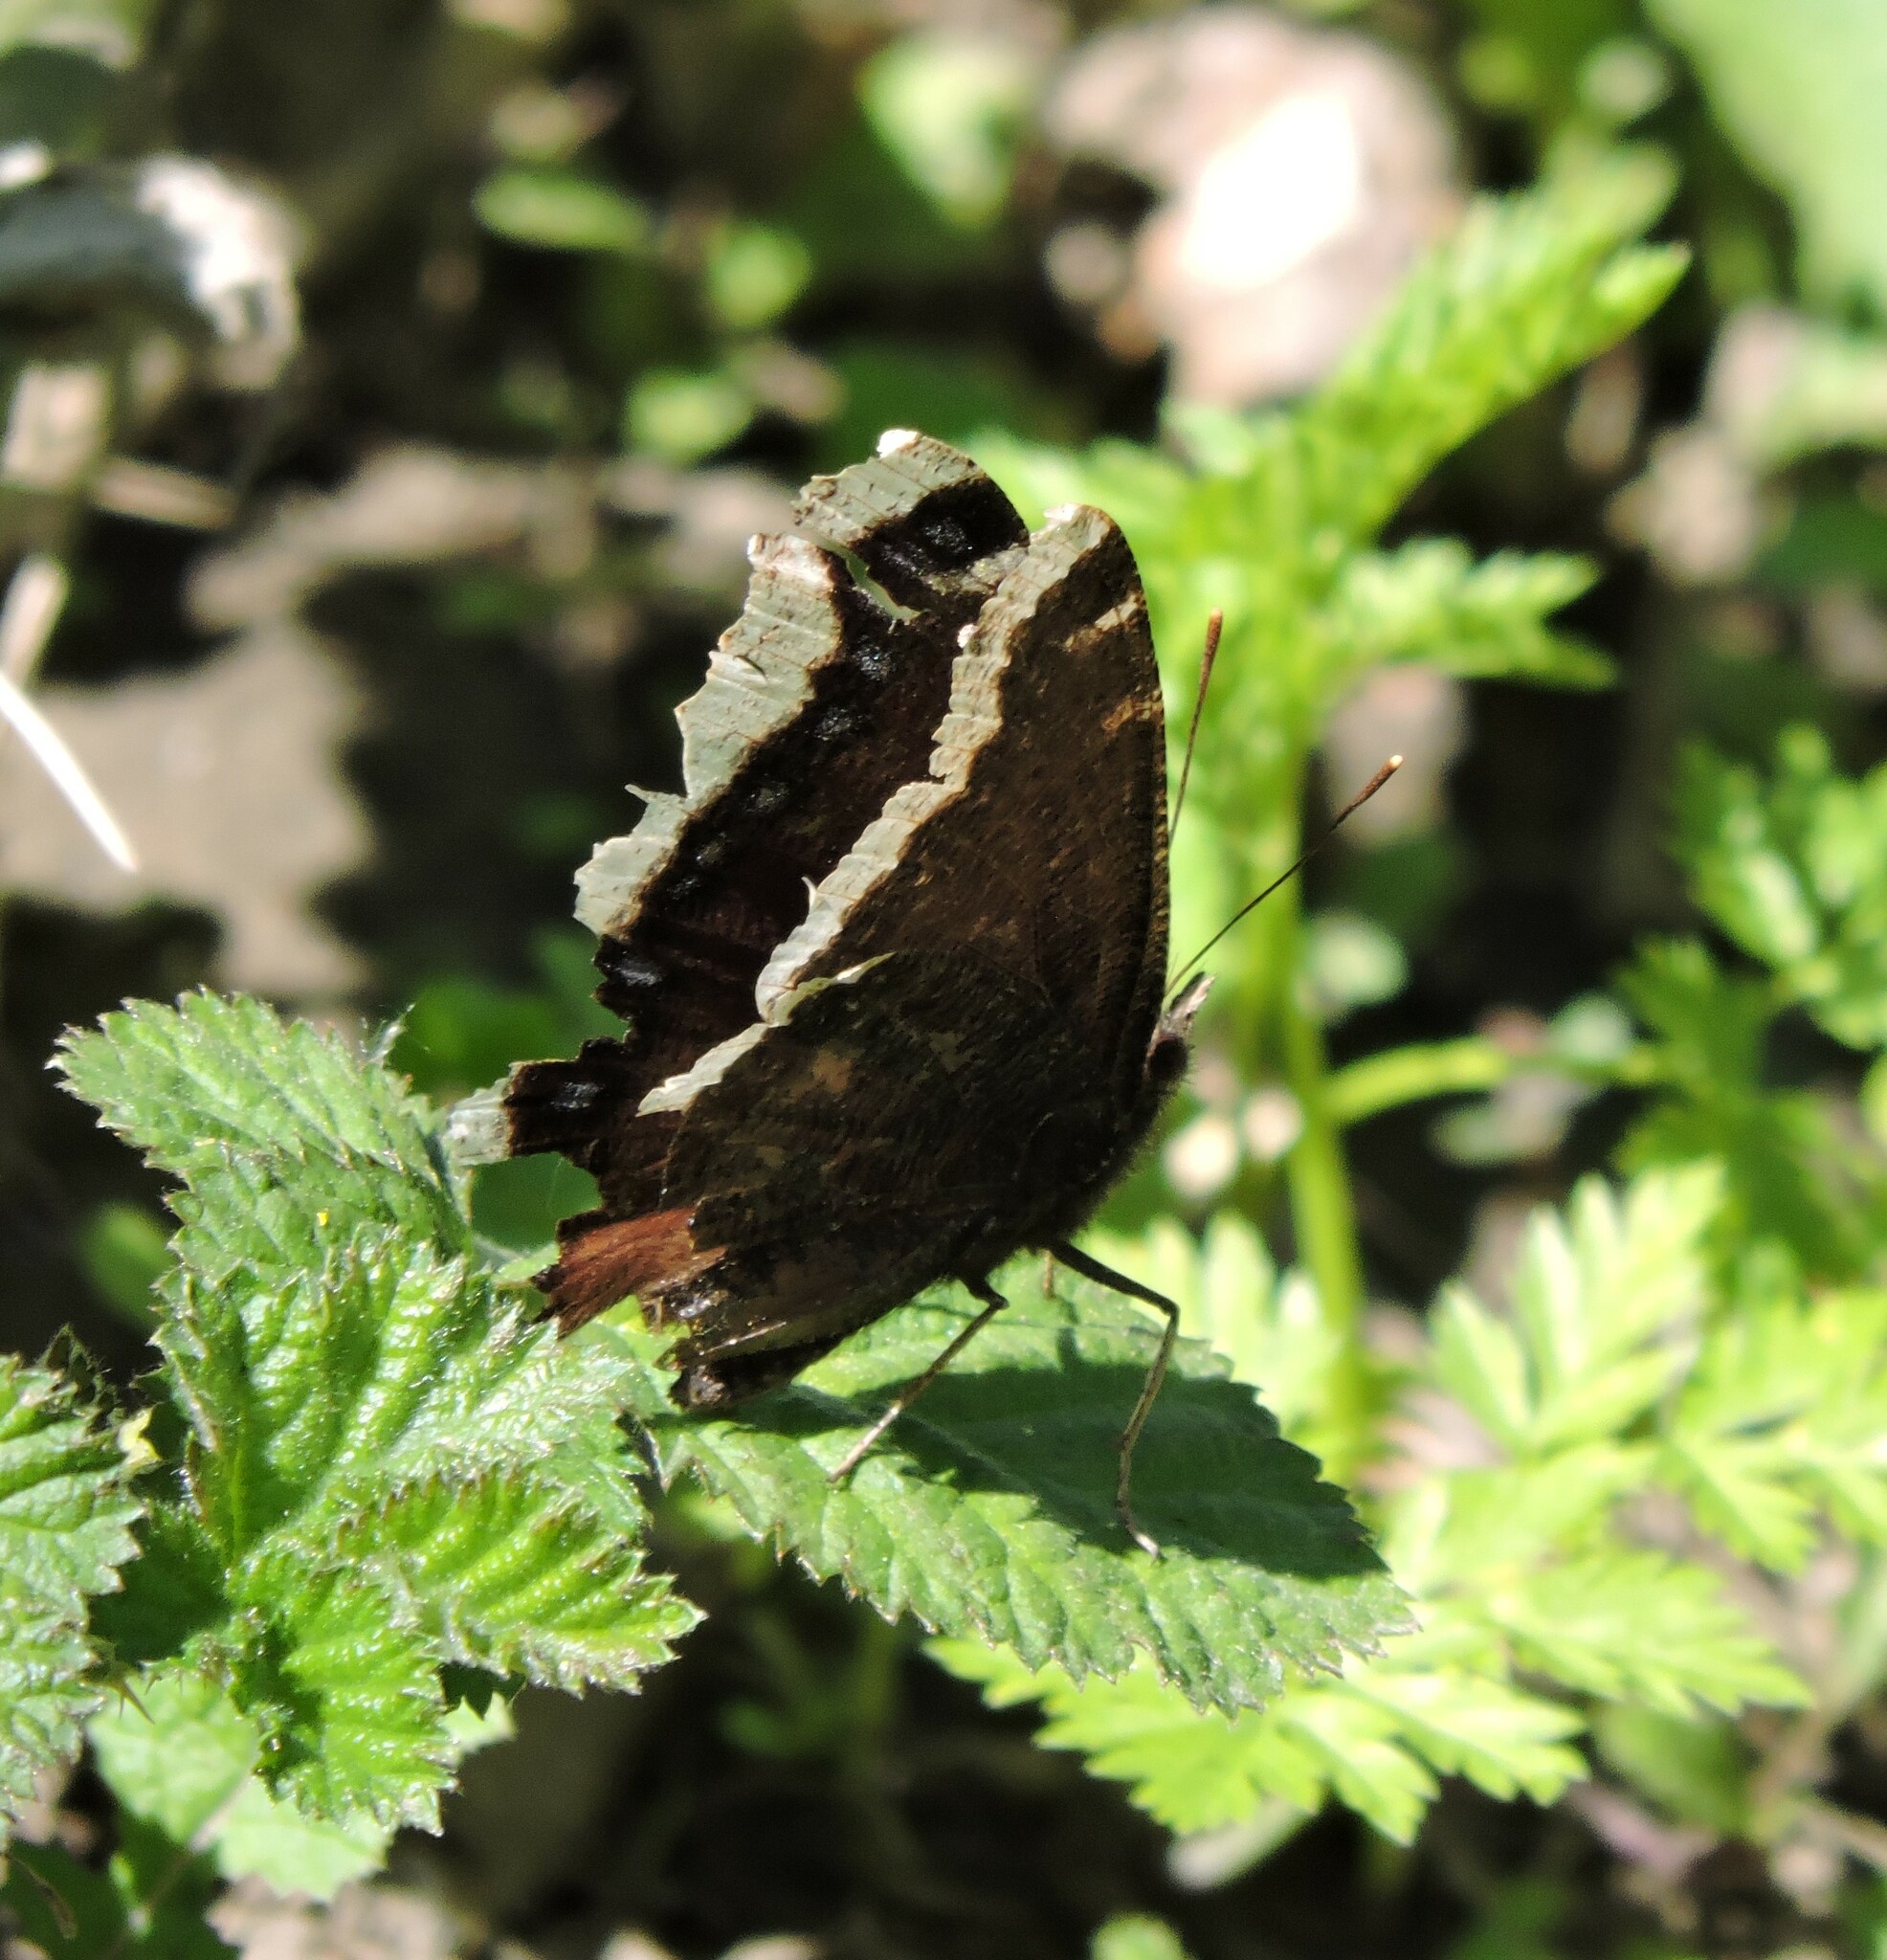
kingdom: Animalia
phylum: Arthropoda
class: Insecta
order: Lepidoptera
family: Nymphalidae
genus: Nymphalis
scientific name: Nymphalis antiopa
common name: Camberwell beauty
